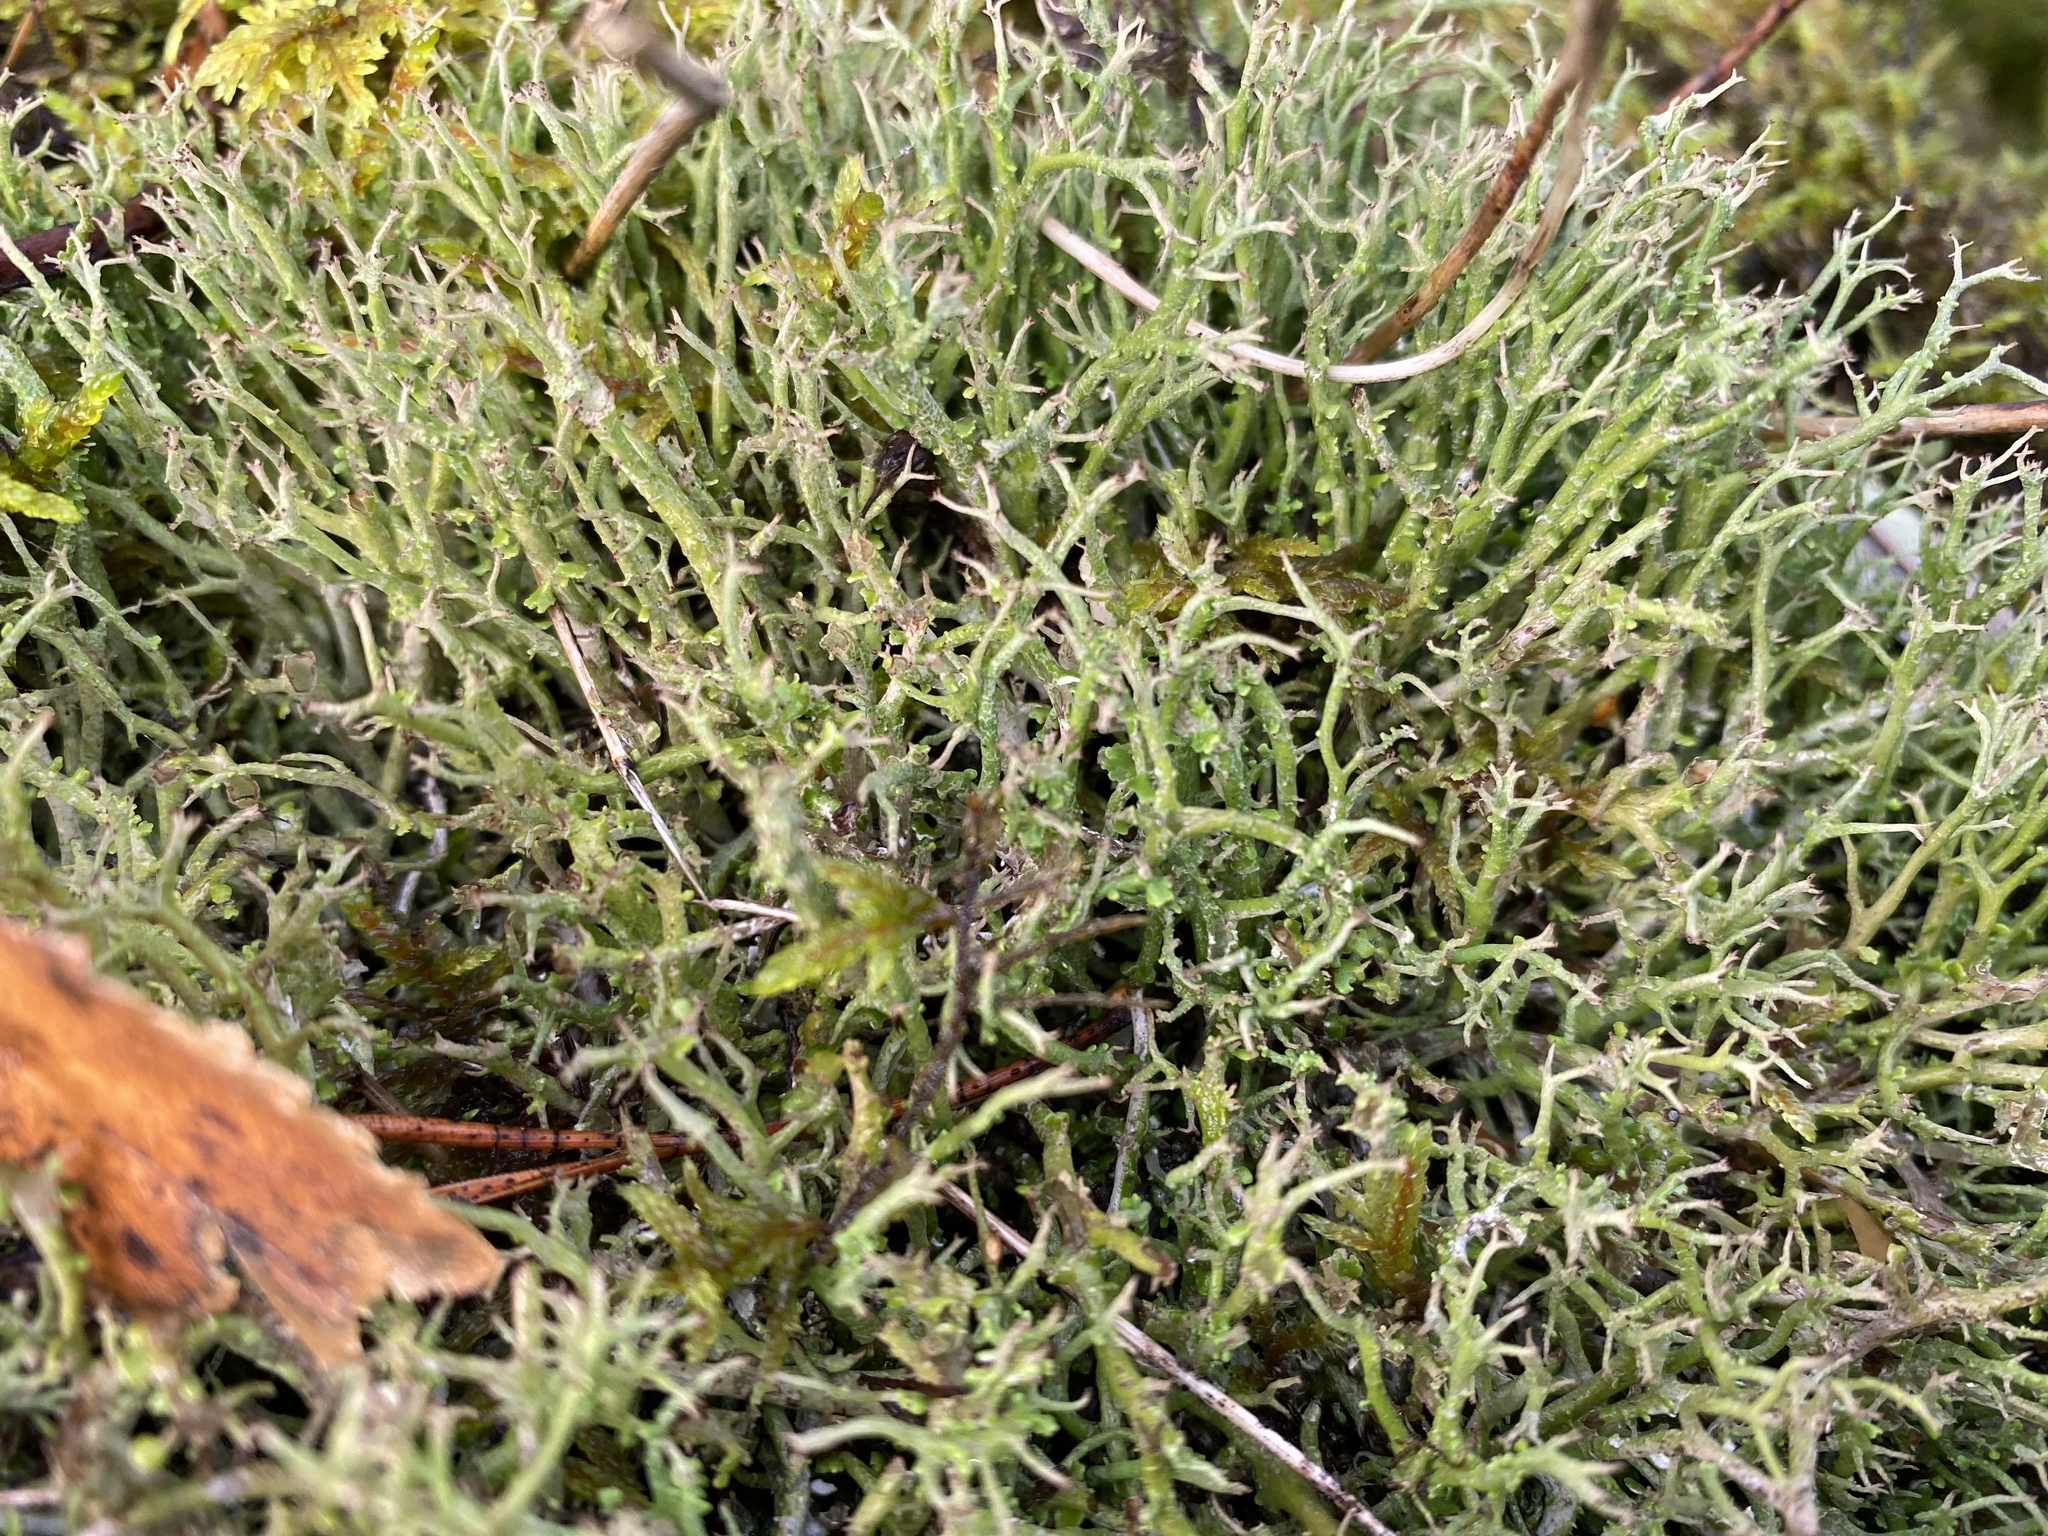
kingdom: Fungi
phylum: Ascomycota
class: Lecanoromycetes
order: Lecanorales
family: Cladoniaceae
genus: Cladonia
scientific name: Cladonia furcata
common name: Many-forked cladonia
